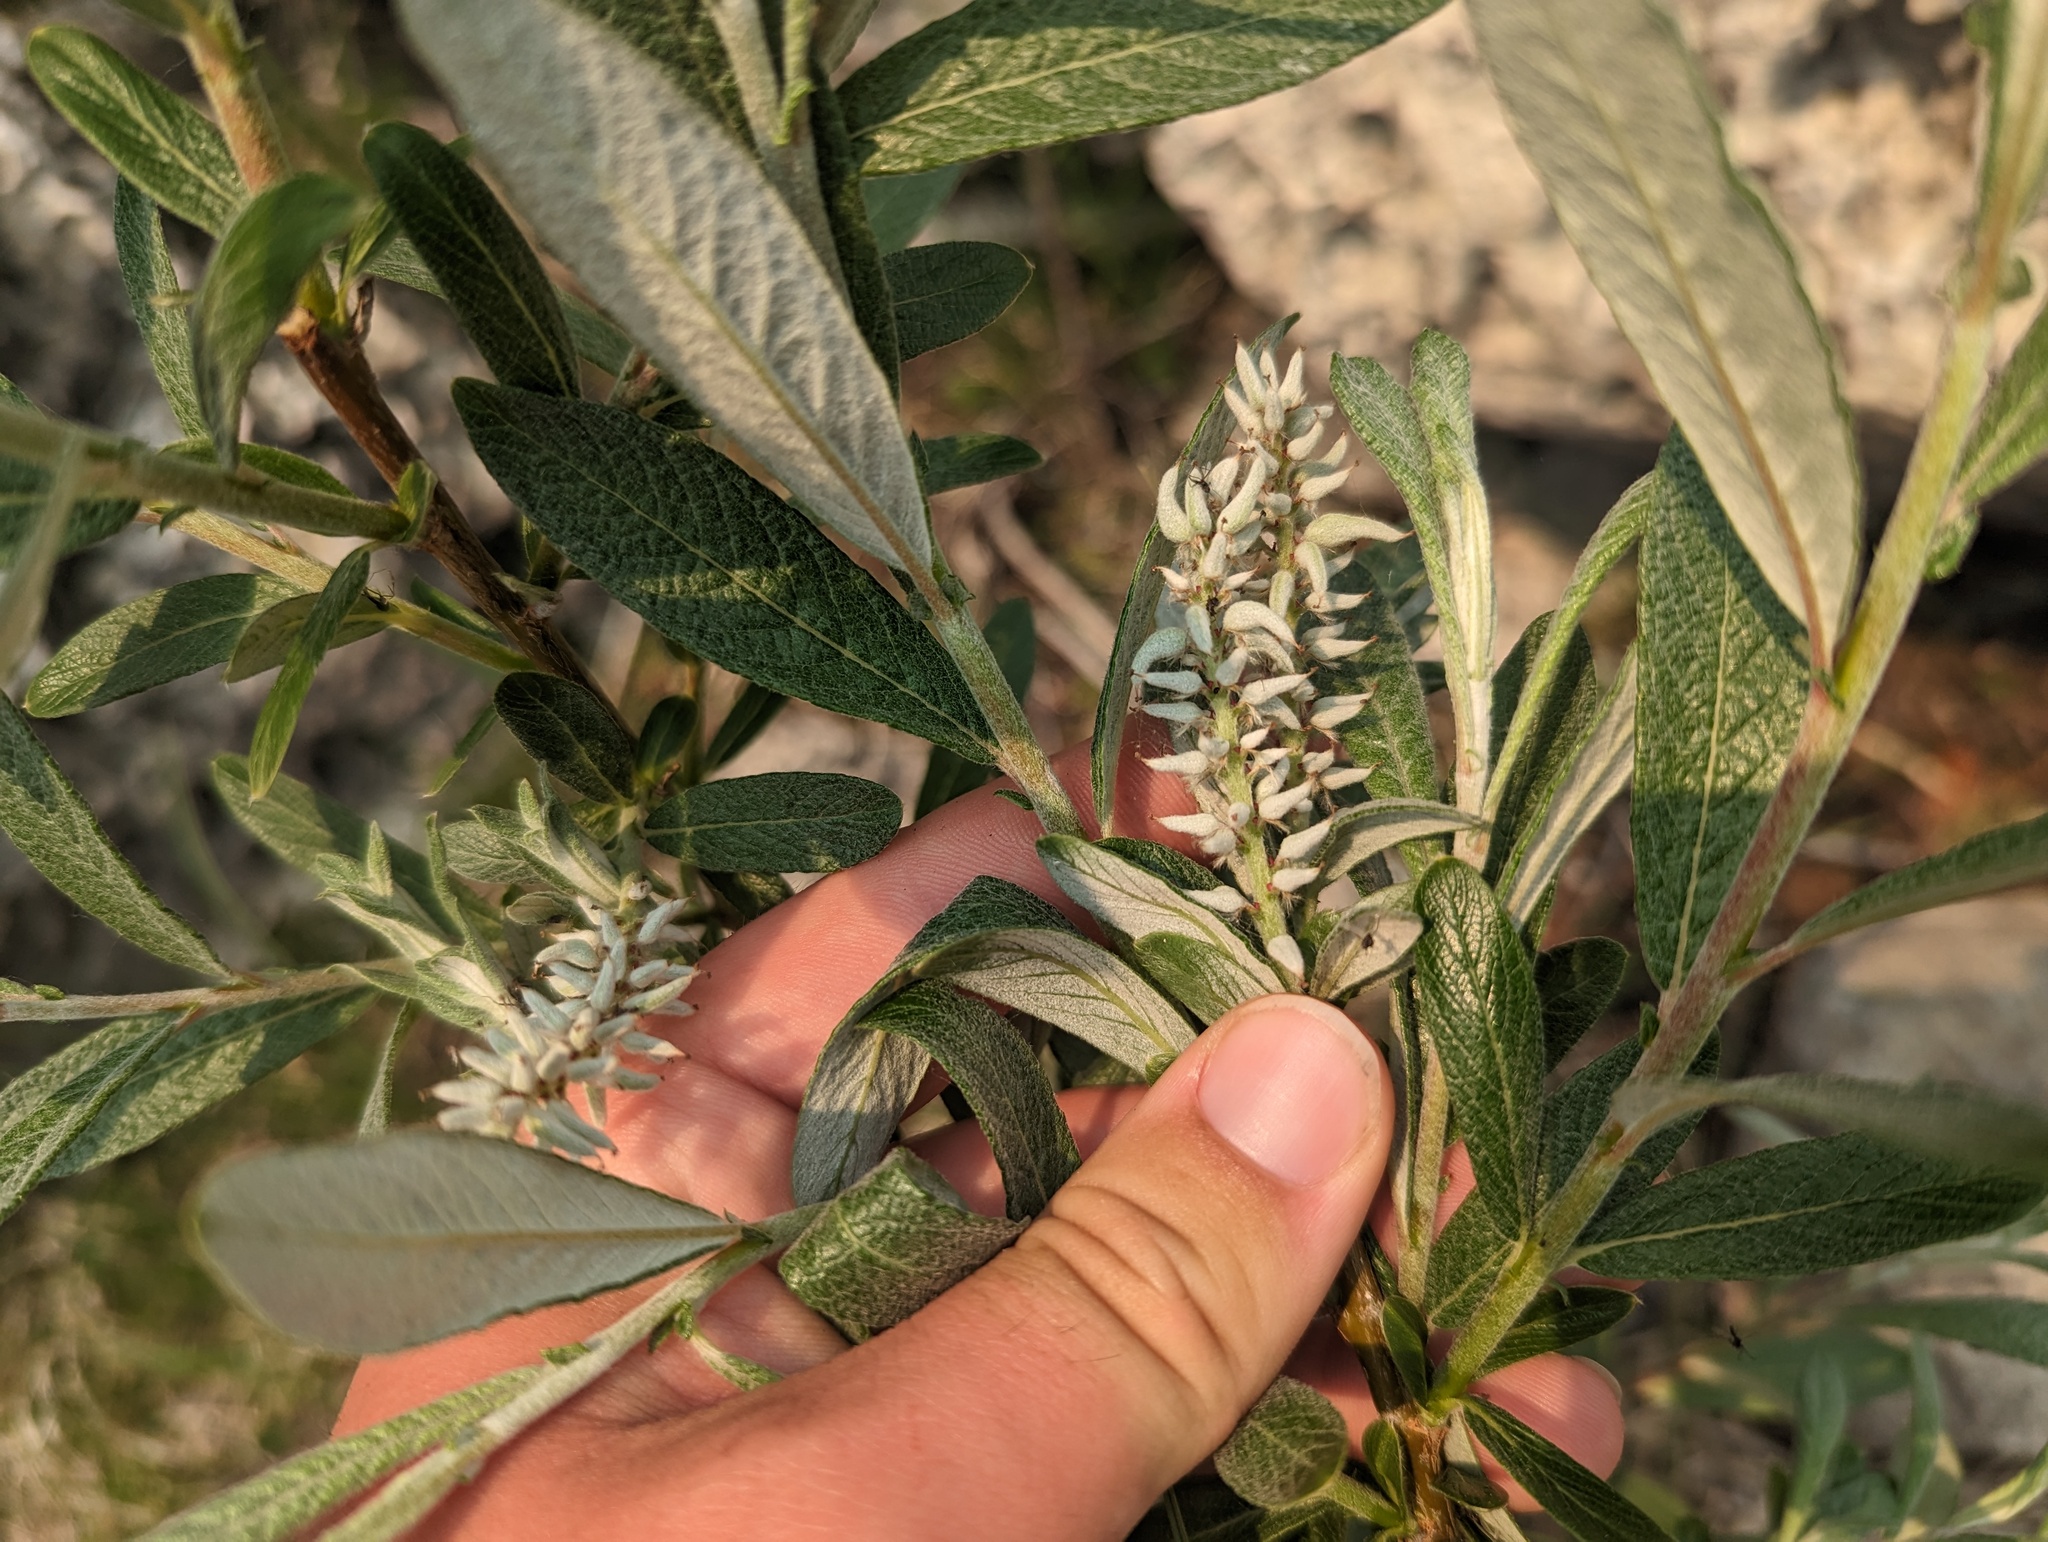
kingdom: Plantae
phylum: Tracheophyta
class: Magnoliopsida
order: Malpighiales
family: Salicaceae
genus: Salix
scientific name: Salix candida
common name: Hoary willow
